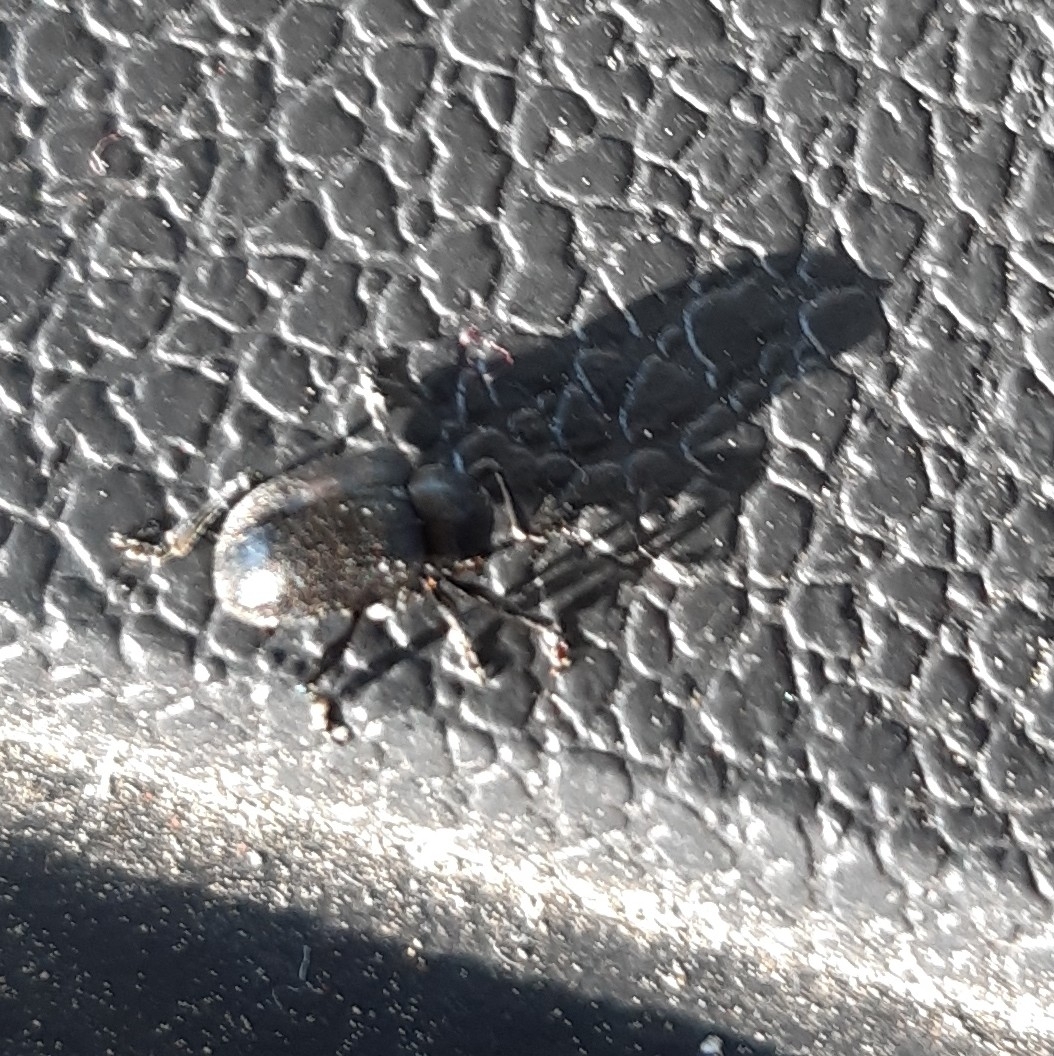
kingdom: Animalia
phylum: Arthropoda
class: Insecta
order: Coleoptera
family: Chrysomelidae
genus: Bromius
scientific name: Bromius obscurus
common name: Western grape rootworm
